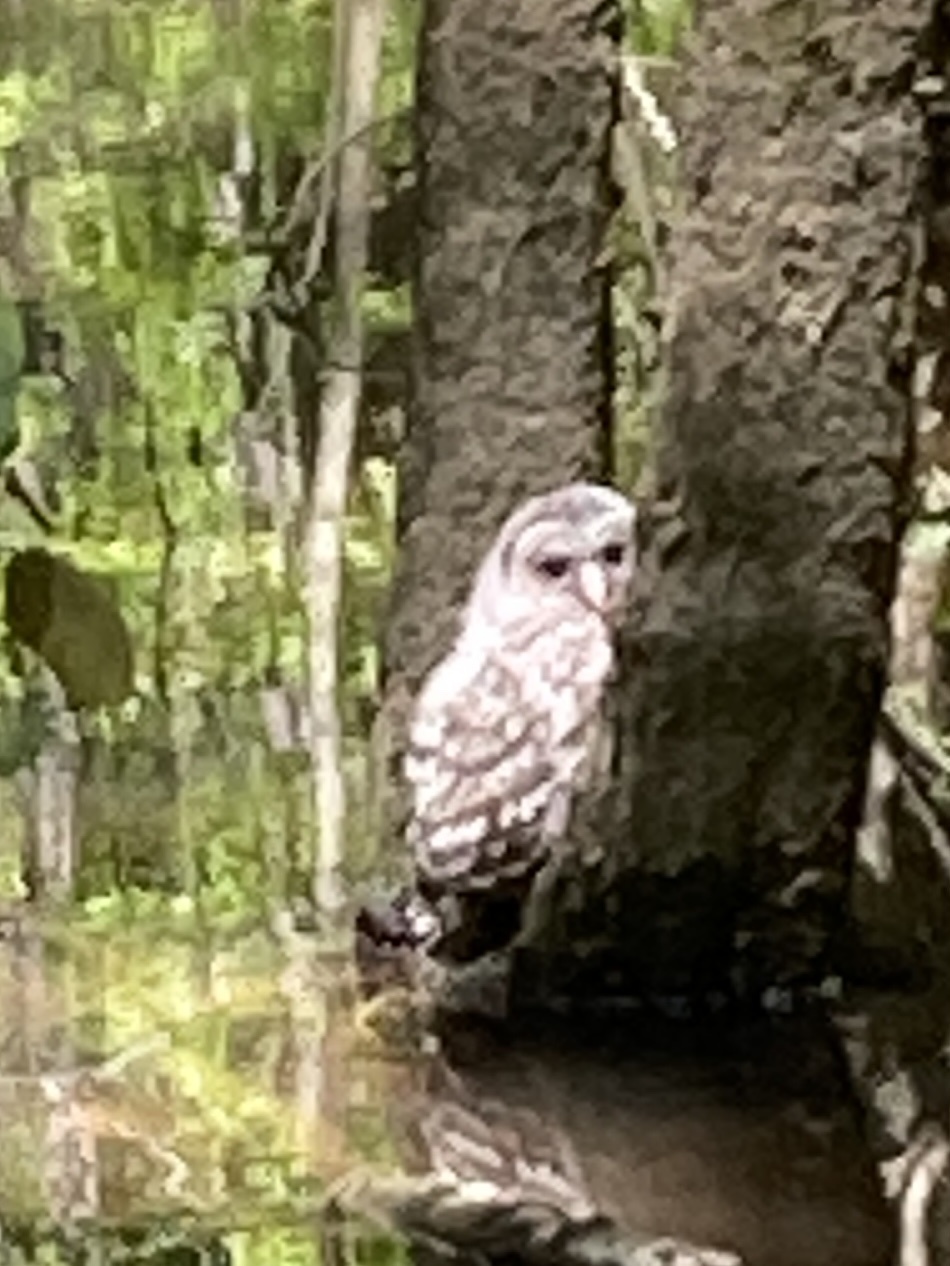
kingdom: Animalia
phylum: Chordata
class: Aves
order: Strigiformes
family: Strigidae
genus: Strix
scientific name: Strix varia
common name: Barred owl
